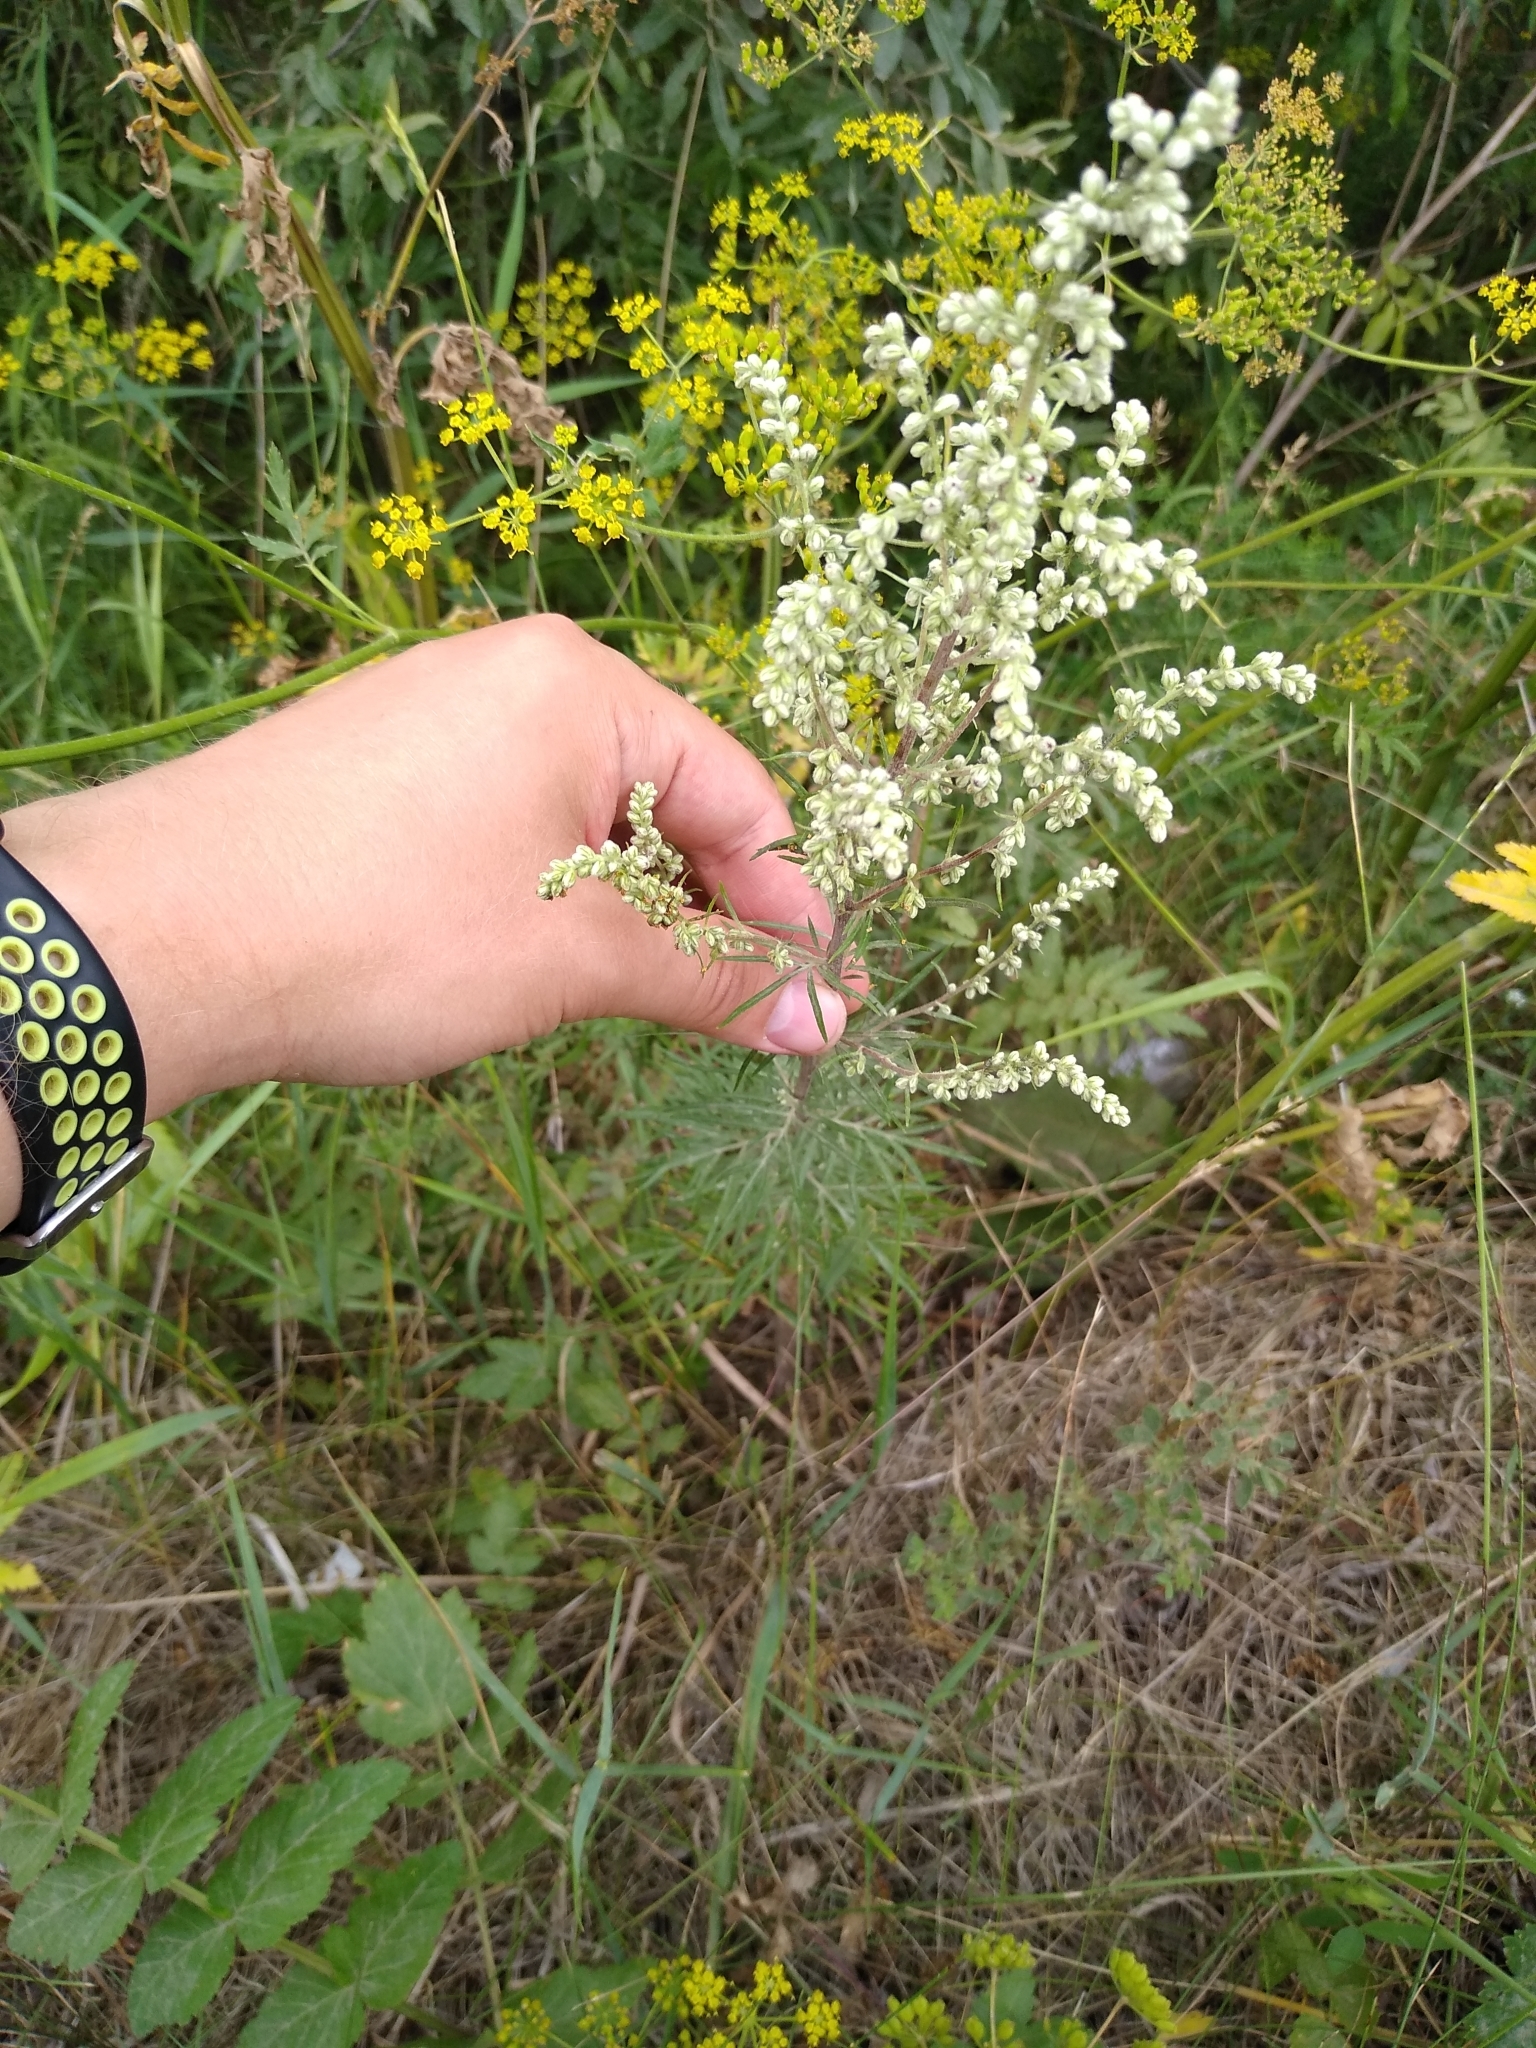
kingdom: Plantae
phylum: Tracheophyta
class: Magnoliopsida
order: Asterales
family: Asteraceae
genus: Artemisia
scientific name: Artemisia vulgaris
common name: Mugwort
